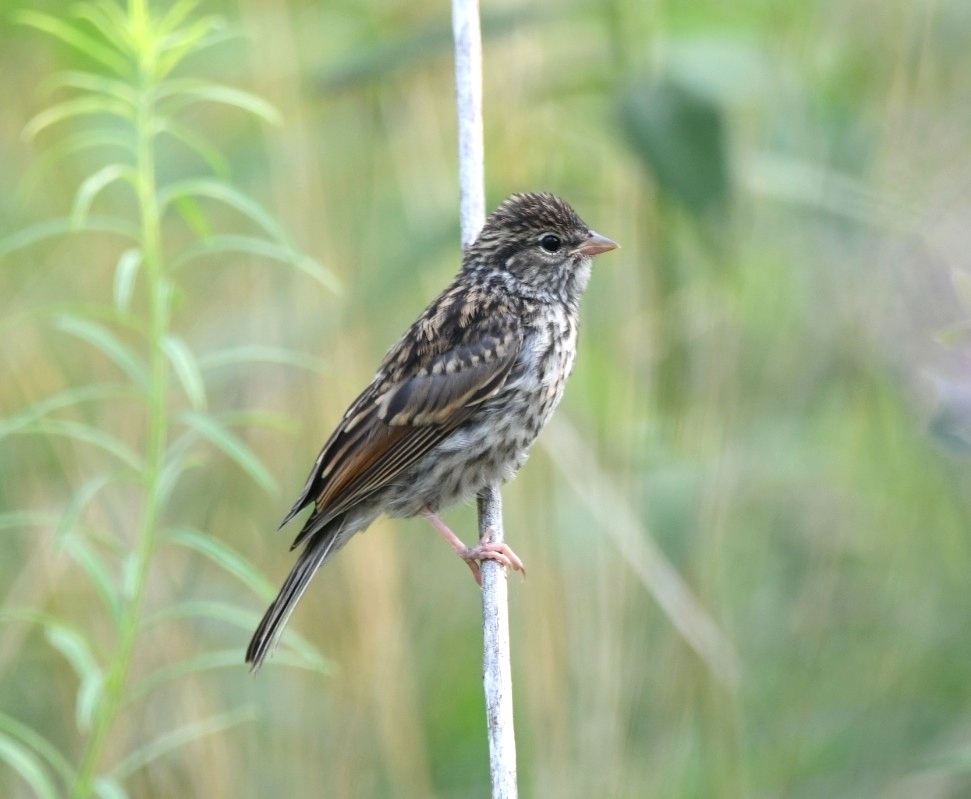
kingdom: Animalia
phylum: Chordata
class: Aves
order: Passeriformes
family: Passerellidae
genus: Spizella
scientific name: Spizella passerina
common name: Chipping sparrow
